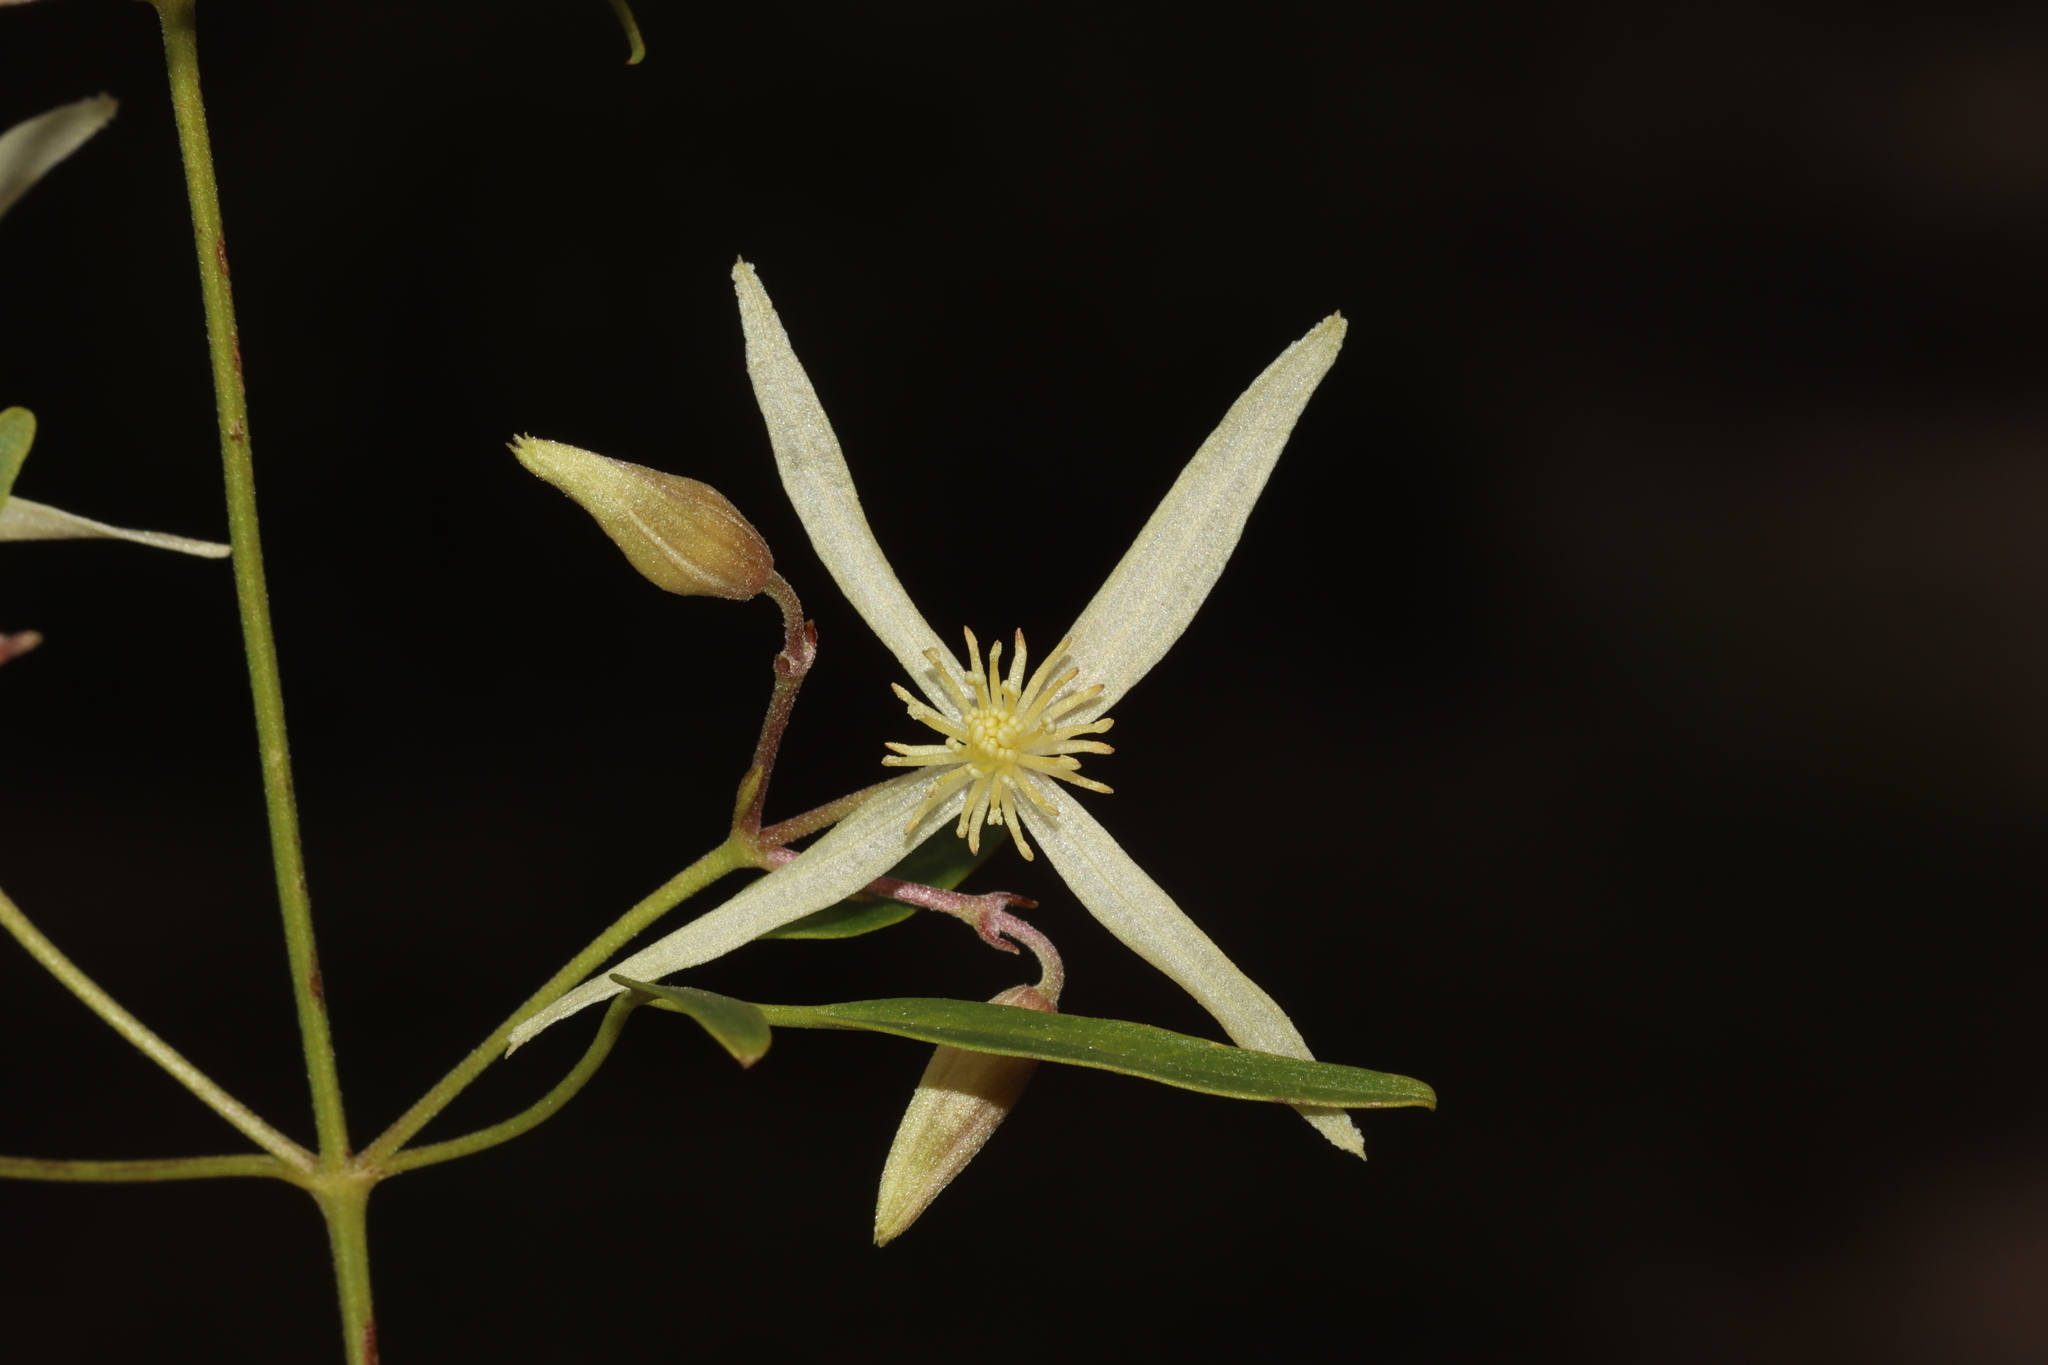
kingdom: Plantae
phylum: Tracheophyta
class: Magnoliopsida
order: Ranunculales
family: Ranunculaceae
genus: Clematis
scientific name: Clematis microphylla
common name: Headachevine
